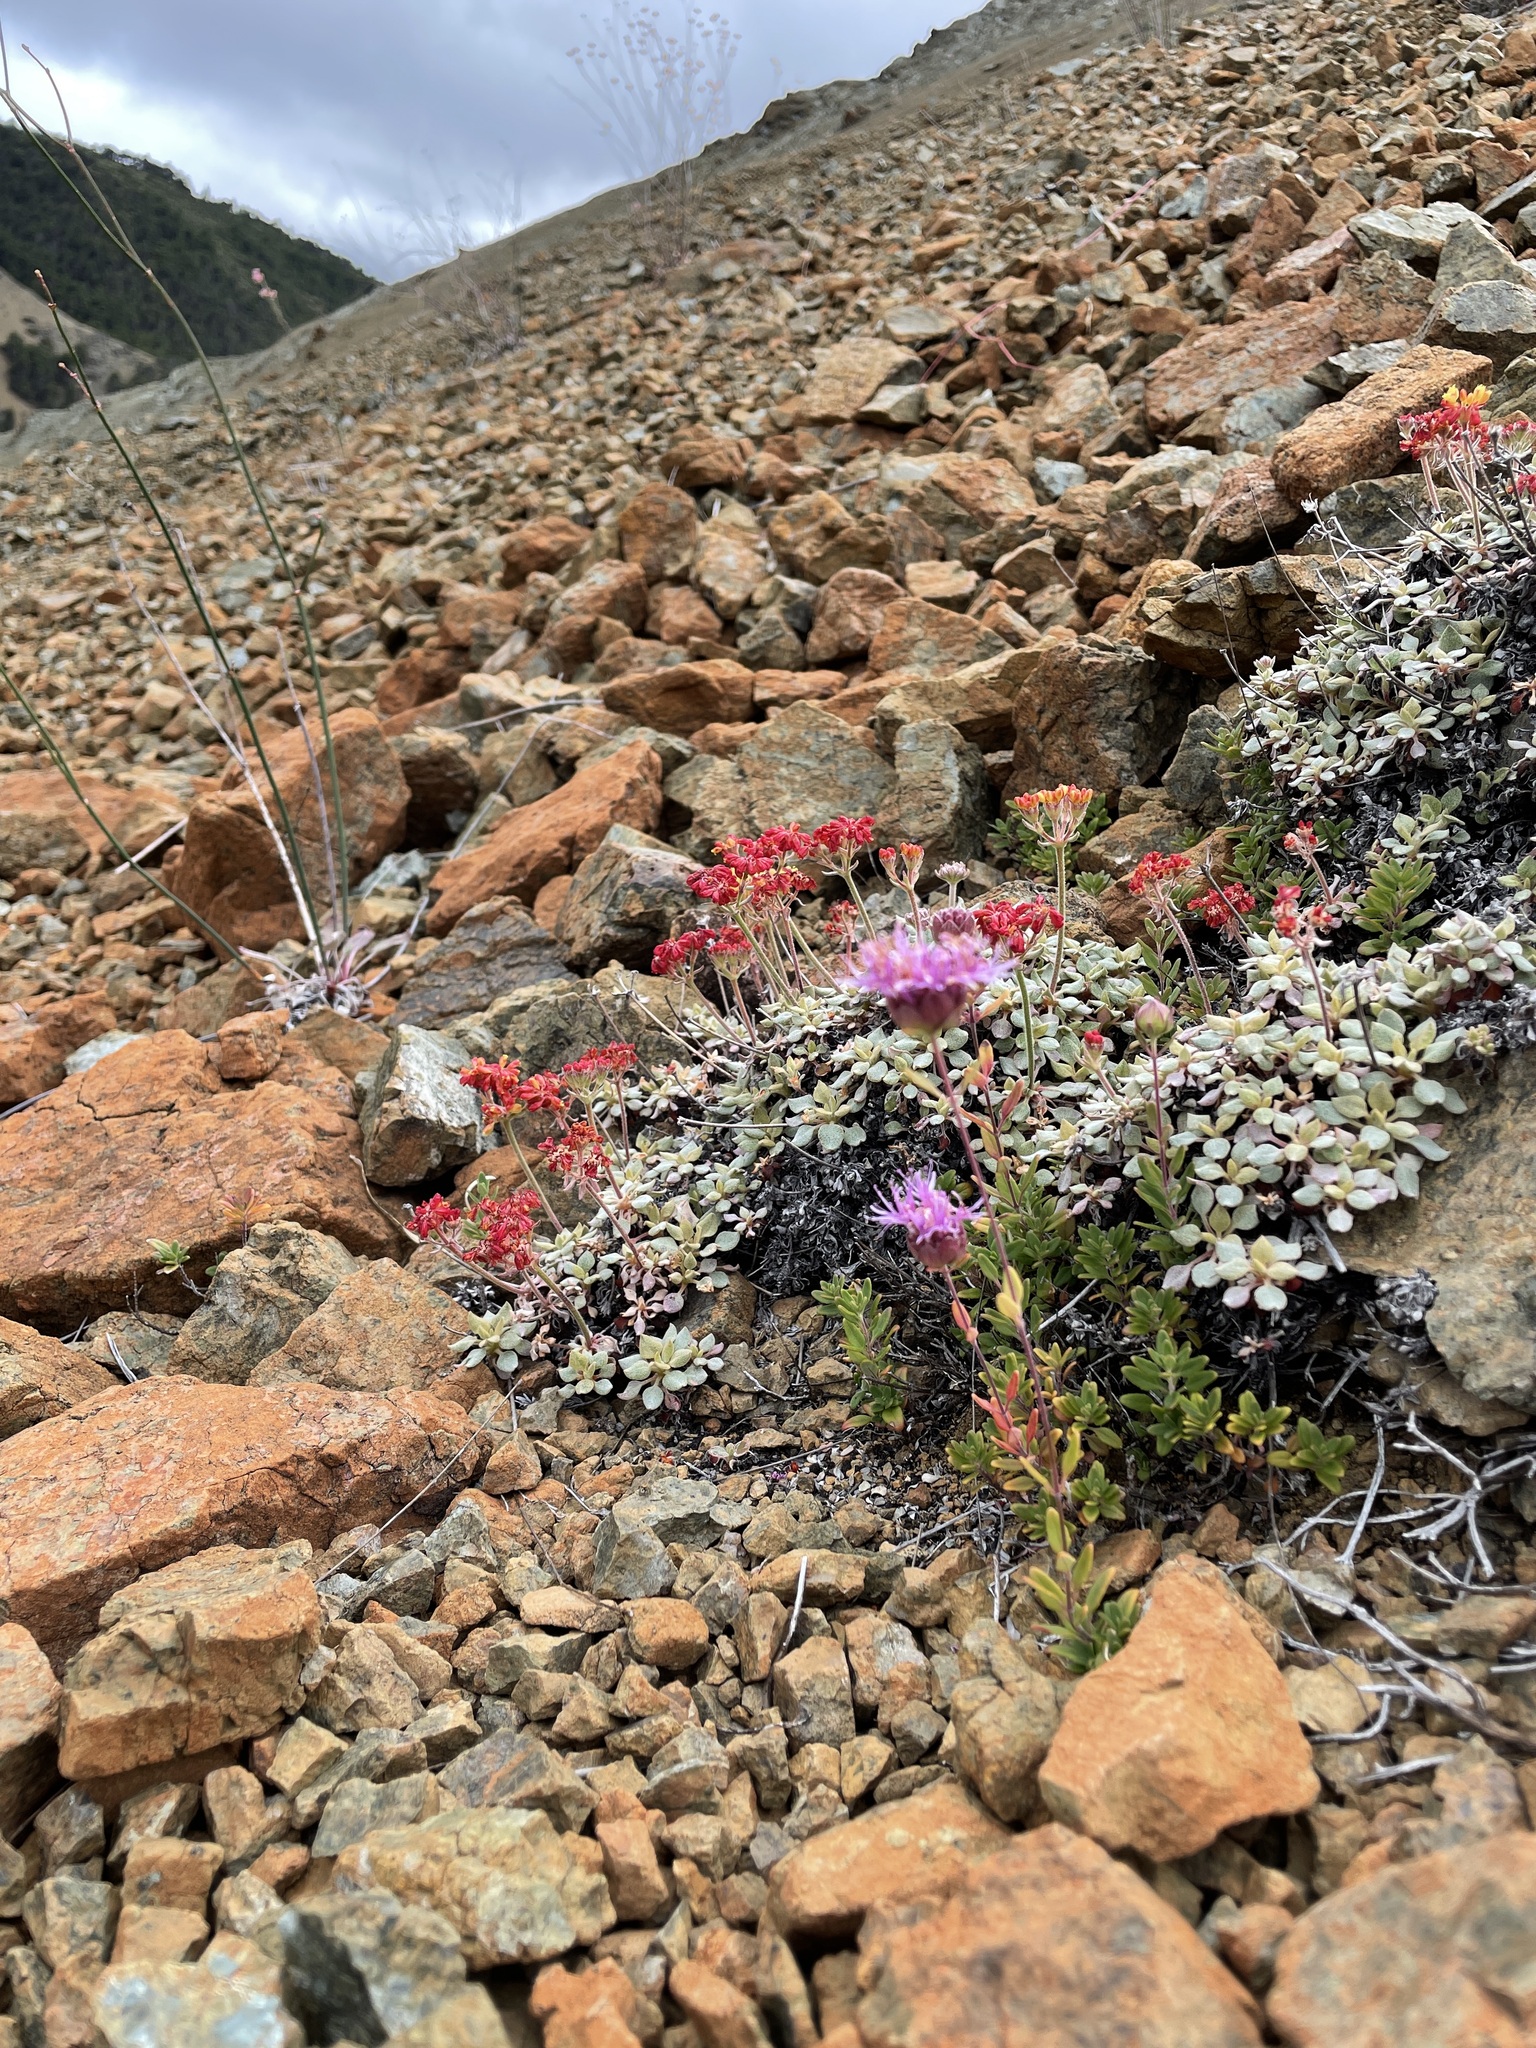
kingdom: Plantae
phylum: Tracheophyta
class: Magnoliopsida
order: Lamiales
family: Lamiaceae
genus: Monardella
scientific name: Monardella viridis
